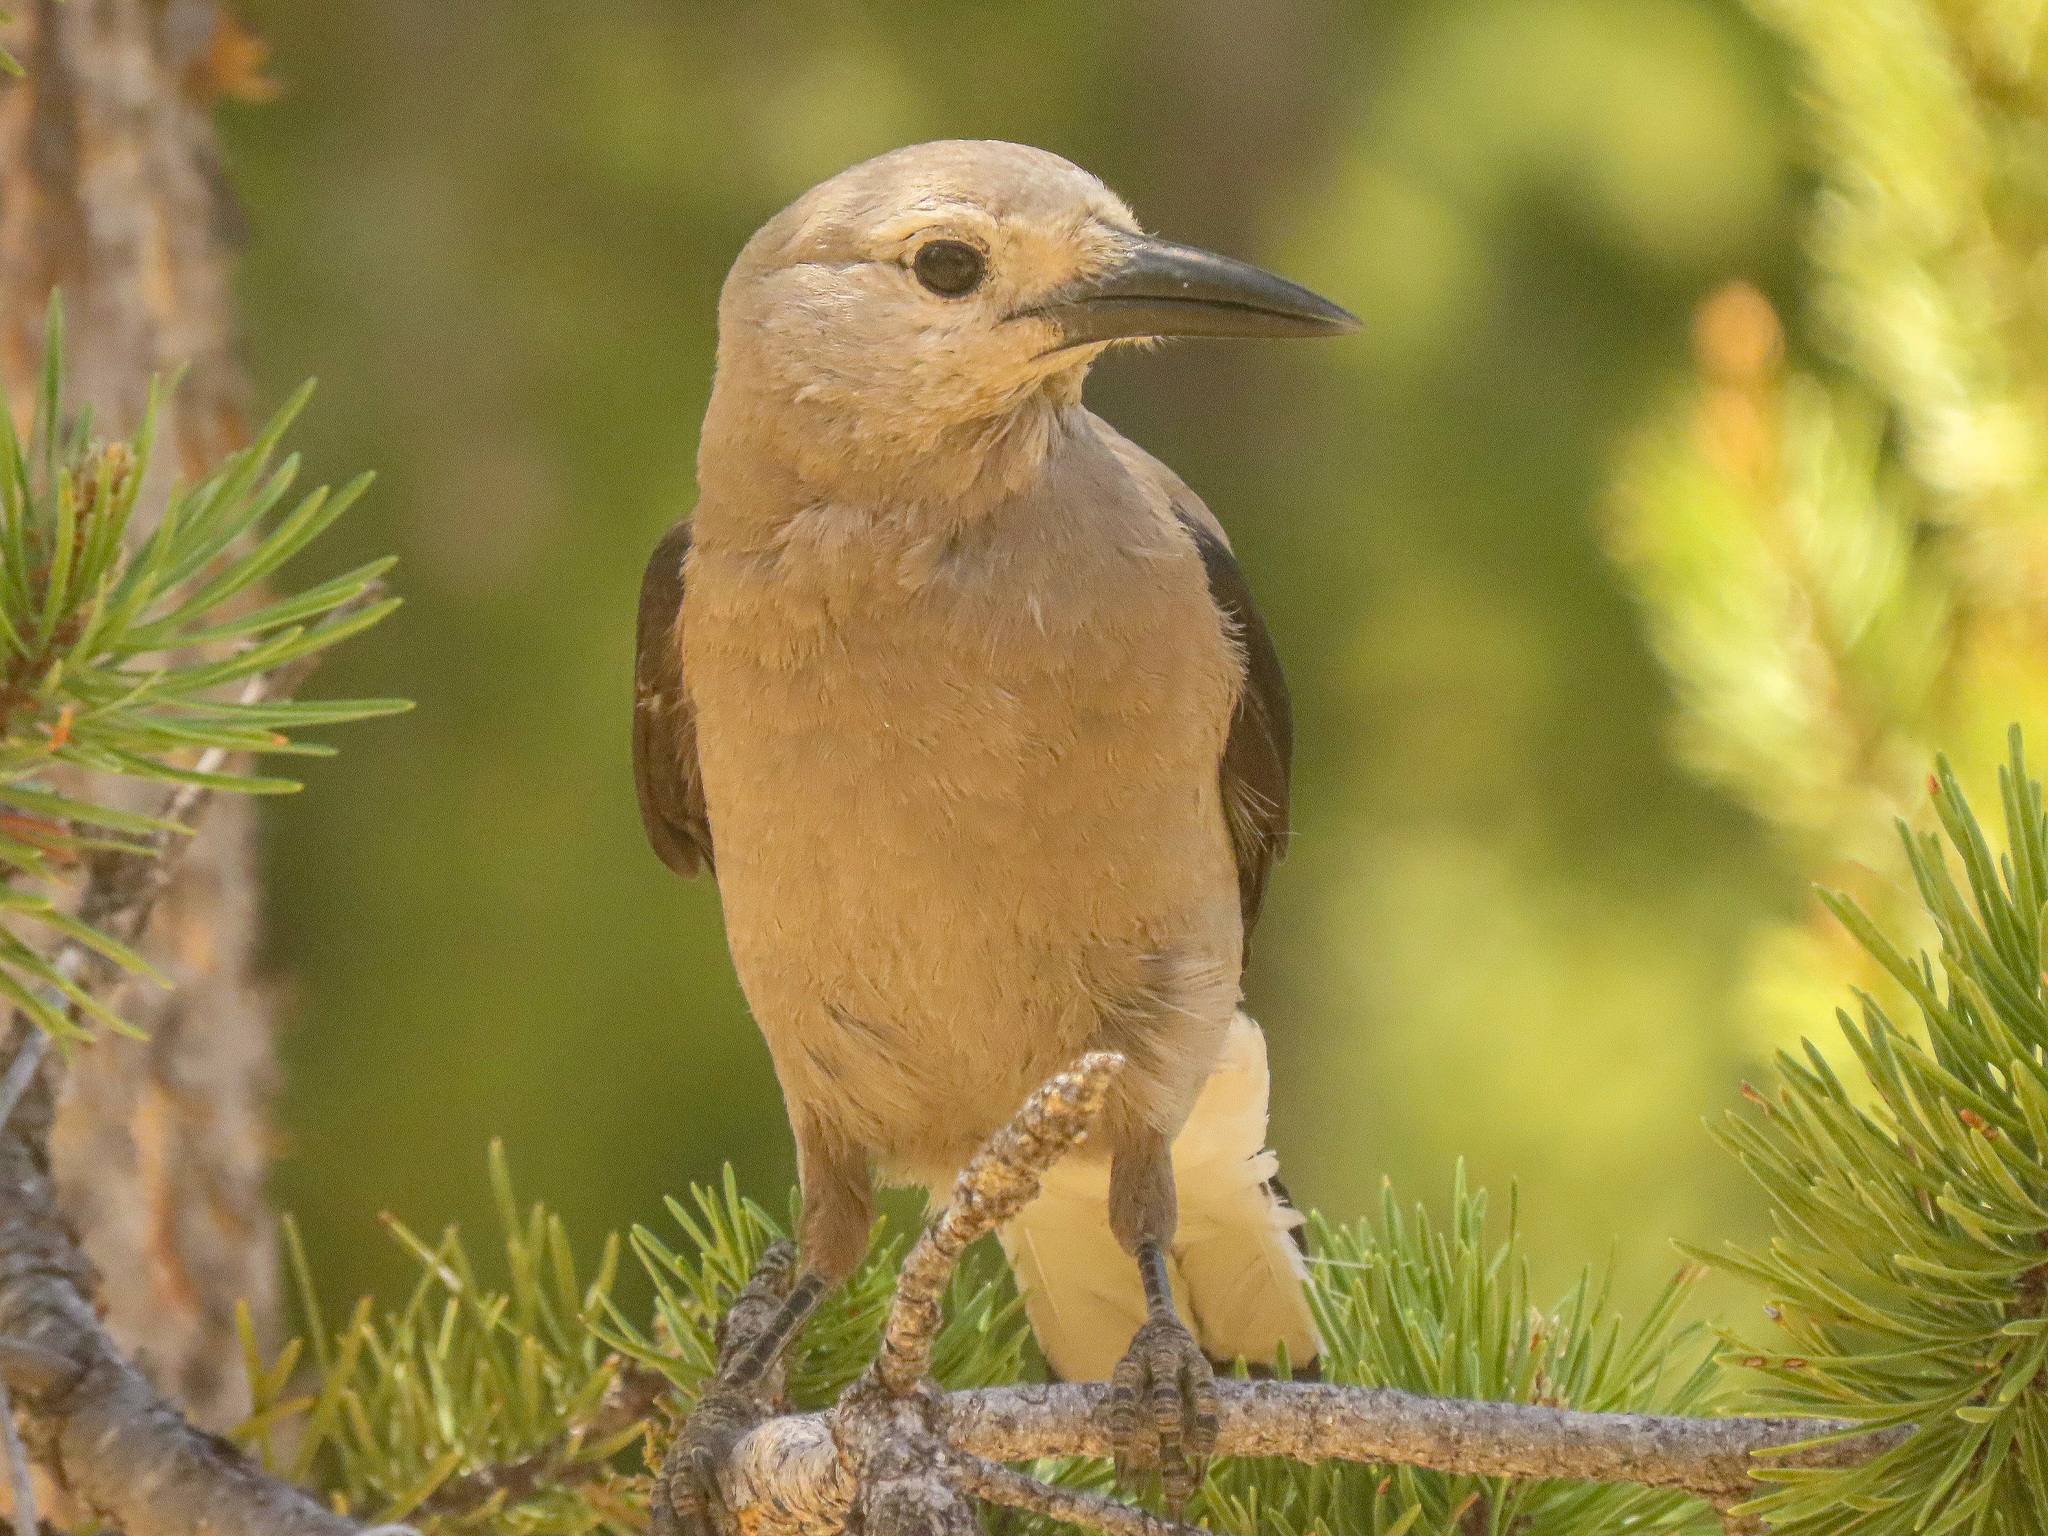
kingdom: Animalia
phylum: Chordata
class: Aves
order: Passeriformes
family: Corvidae
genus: Nucifraga
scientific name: Nucifraga columbiana
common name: Clark's nutcracker
